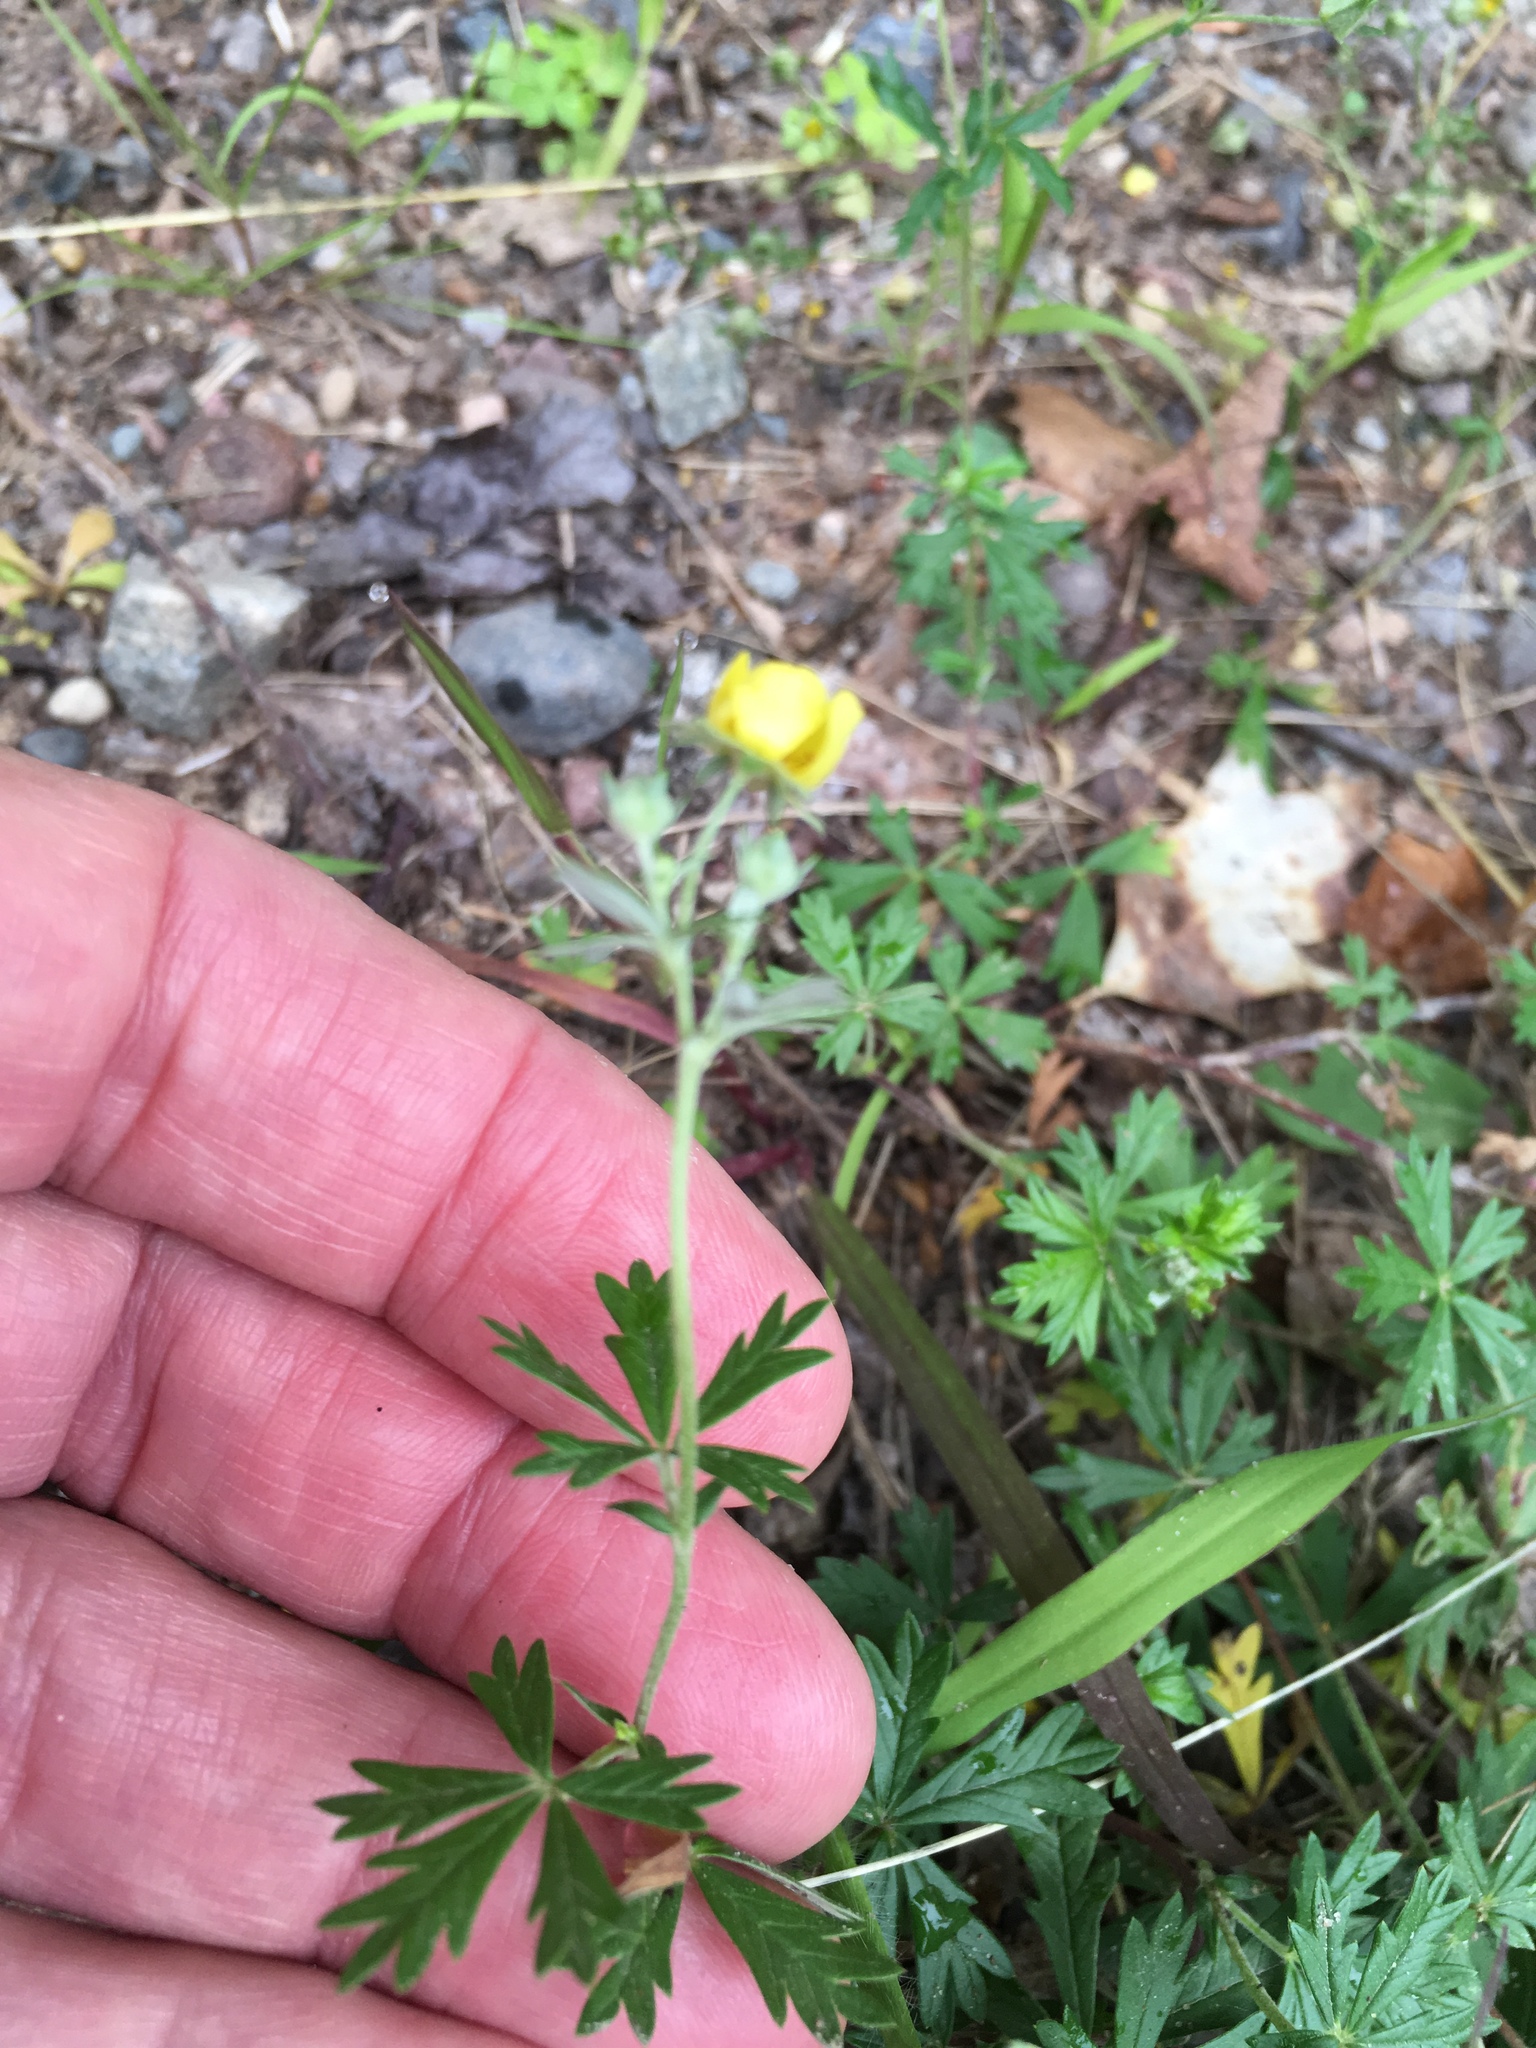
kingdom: Plantae
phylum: Tracheophyta
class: Magnoliopsida
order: Rosales
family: Rosaceae
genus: Potentilla
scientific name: Potentilla argentea
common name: Hoary cinquefoil
